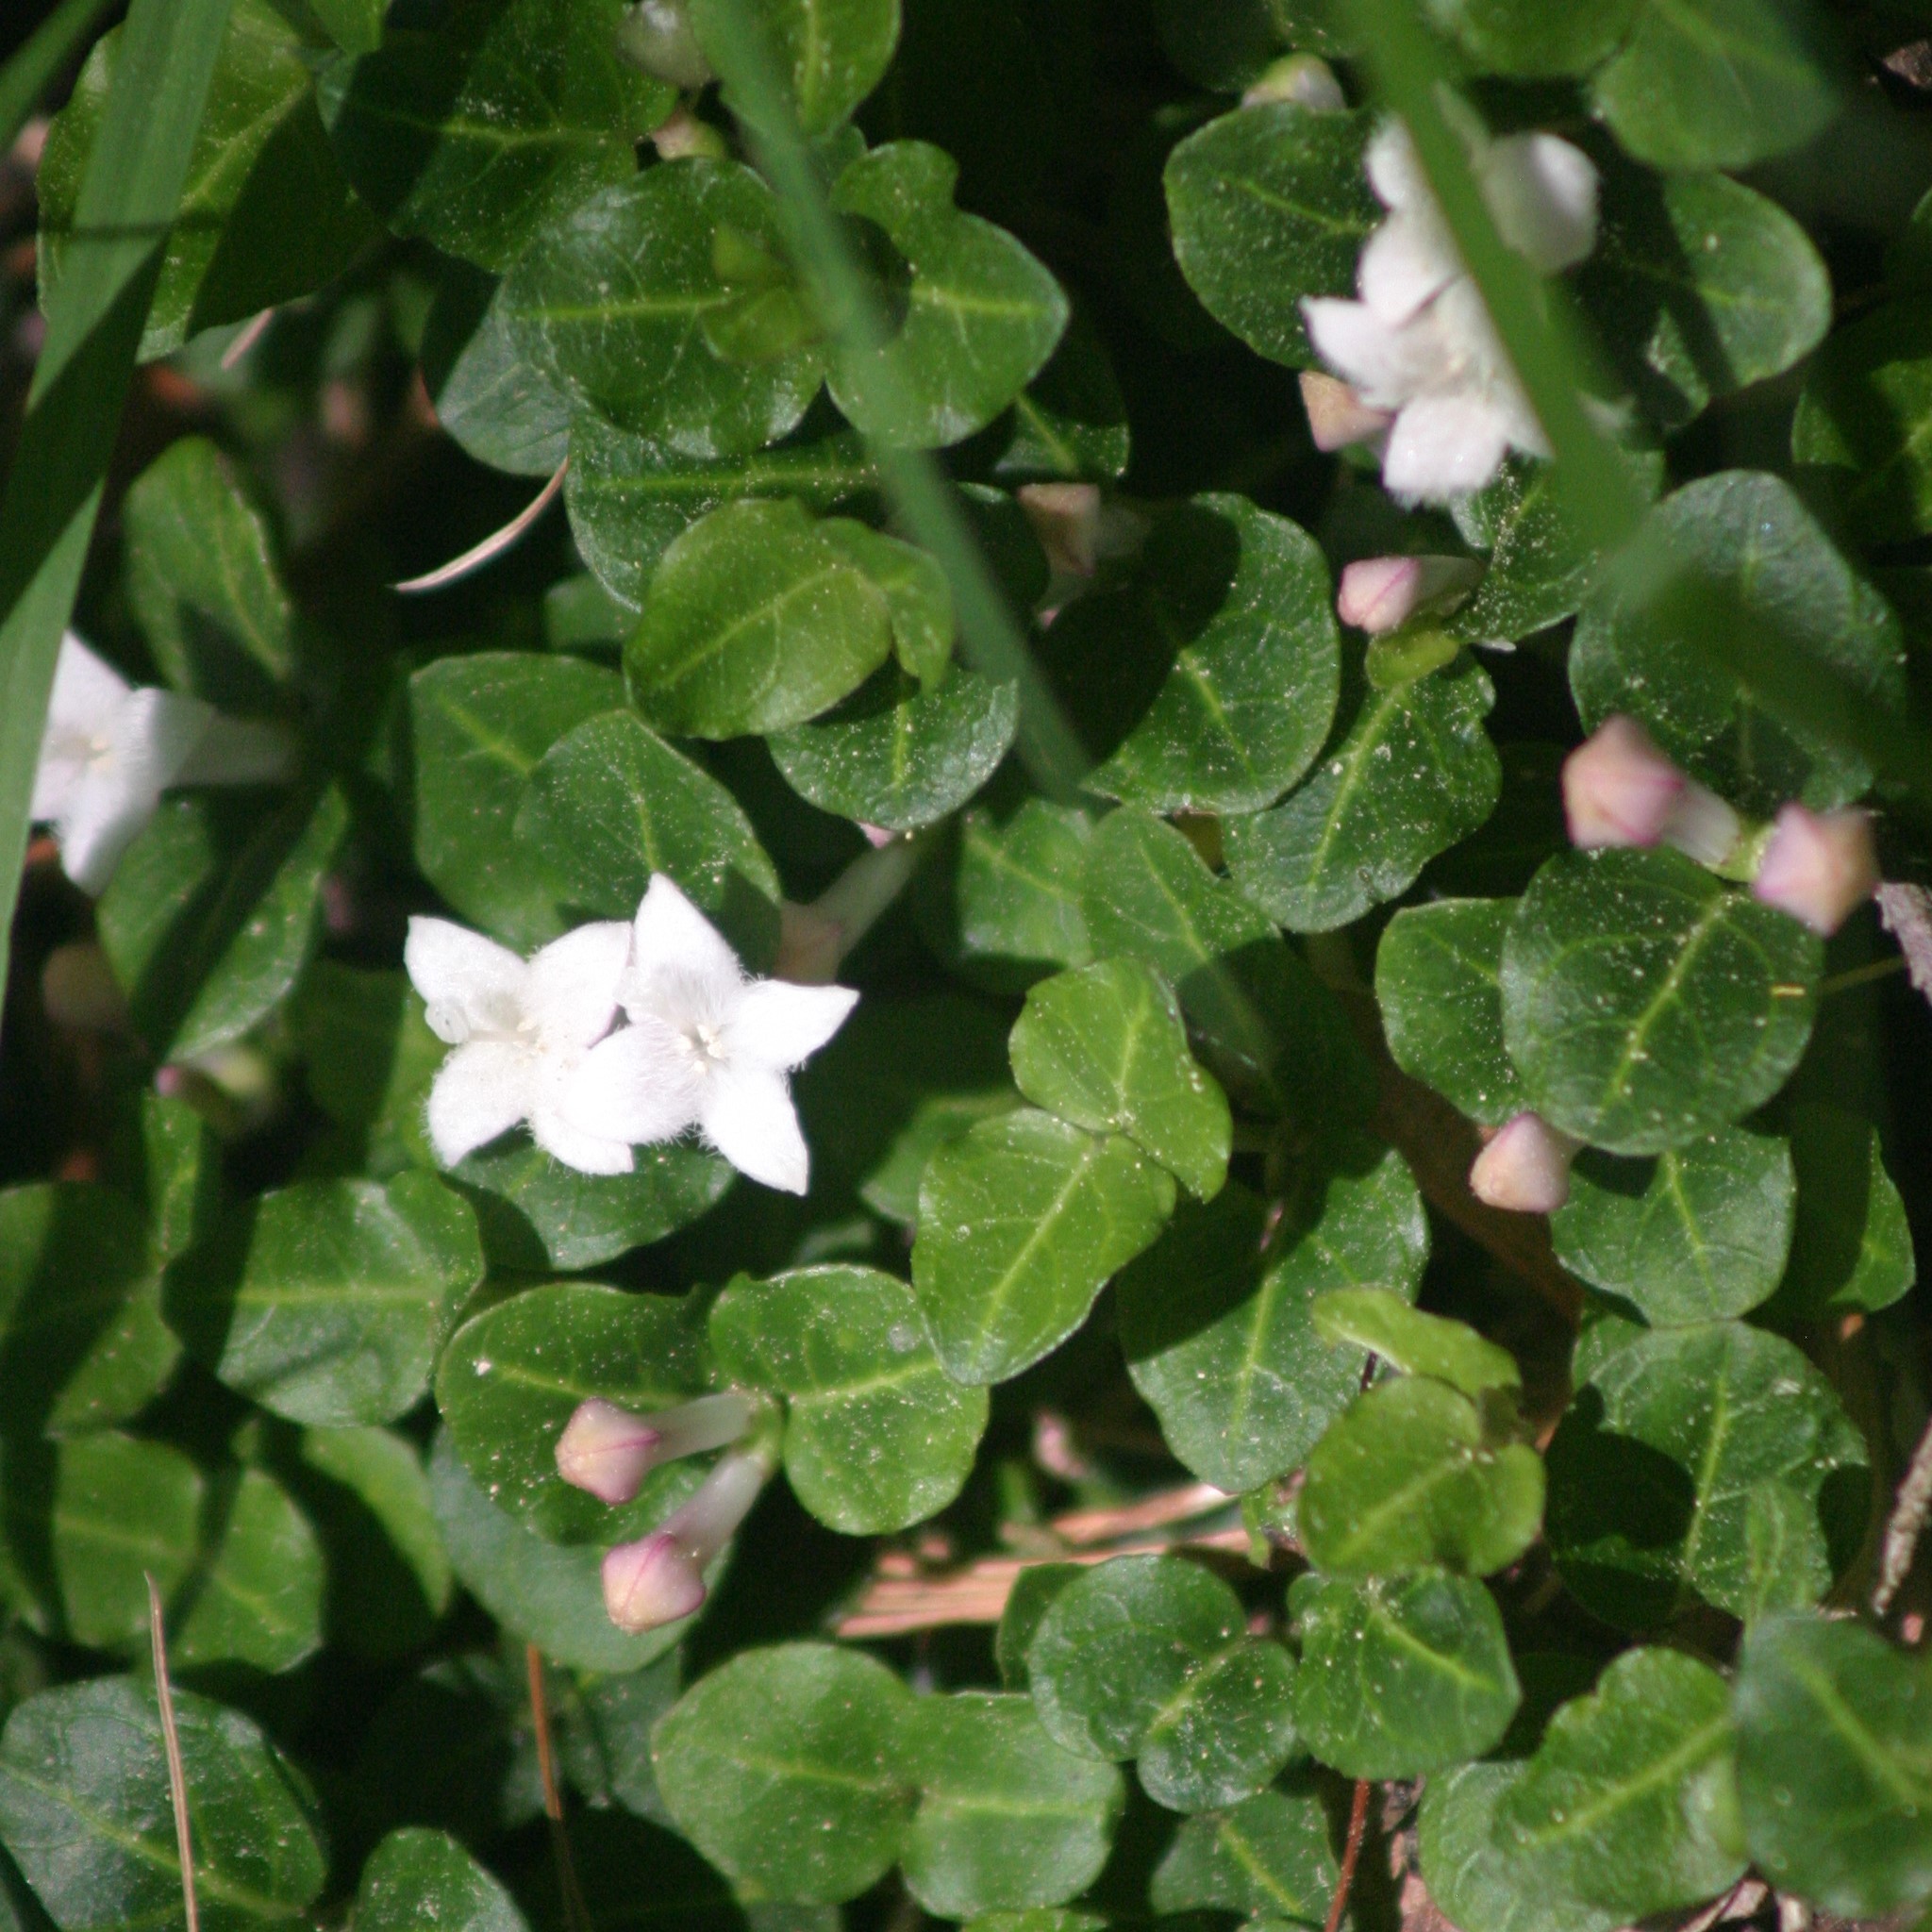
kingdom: Plantae
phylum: Tracheophyta
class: Magnoliopsida
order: Gentianales
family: Rubiaceae
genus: Mitchella
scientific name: Mitchella repens
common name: Partridge-berry
